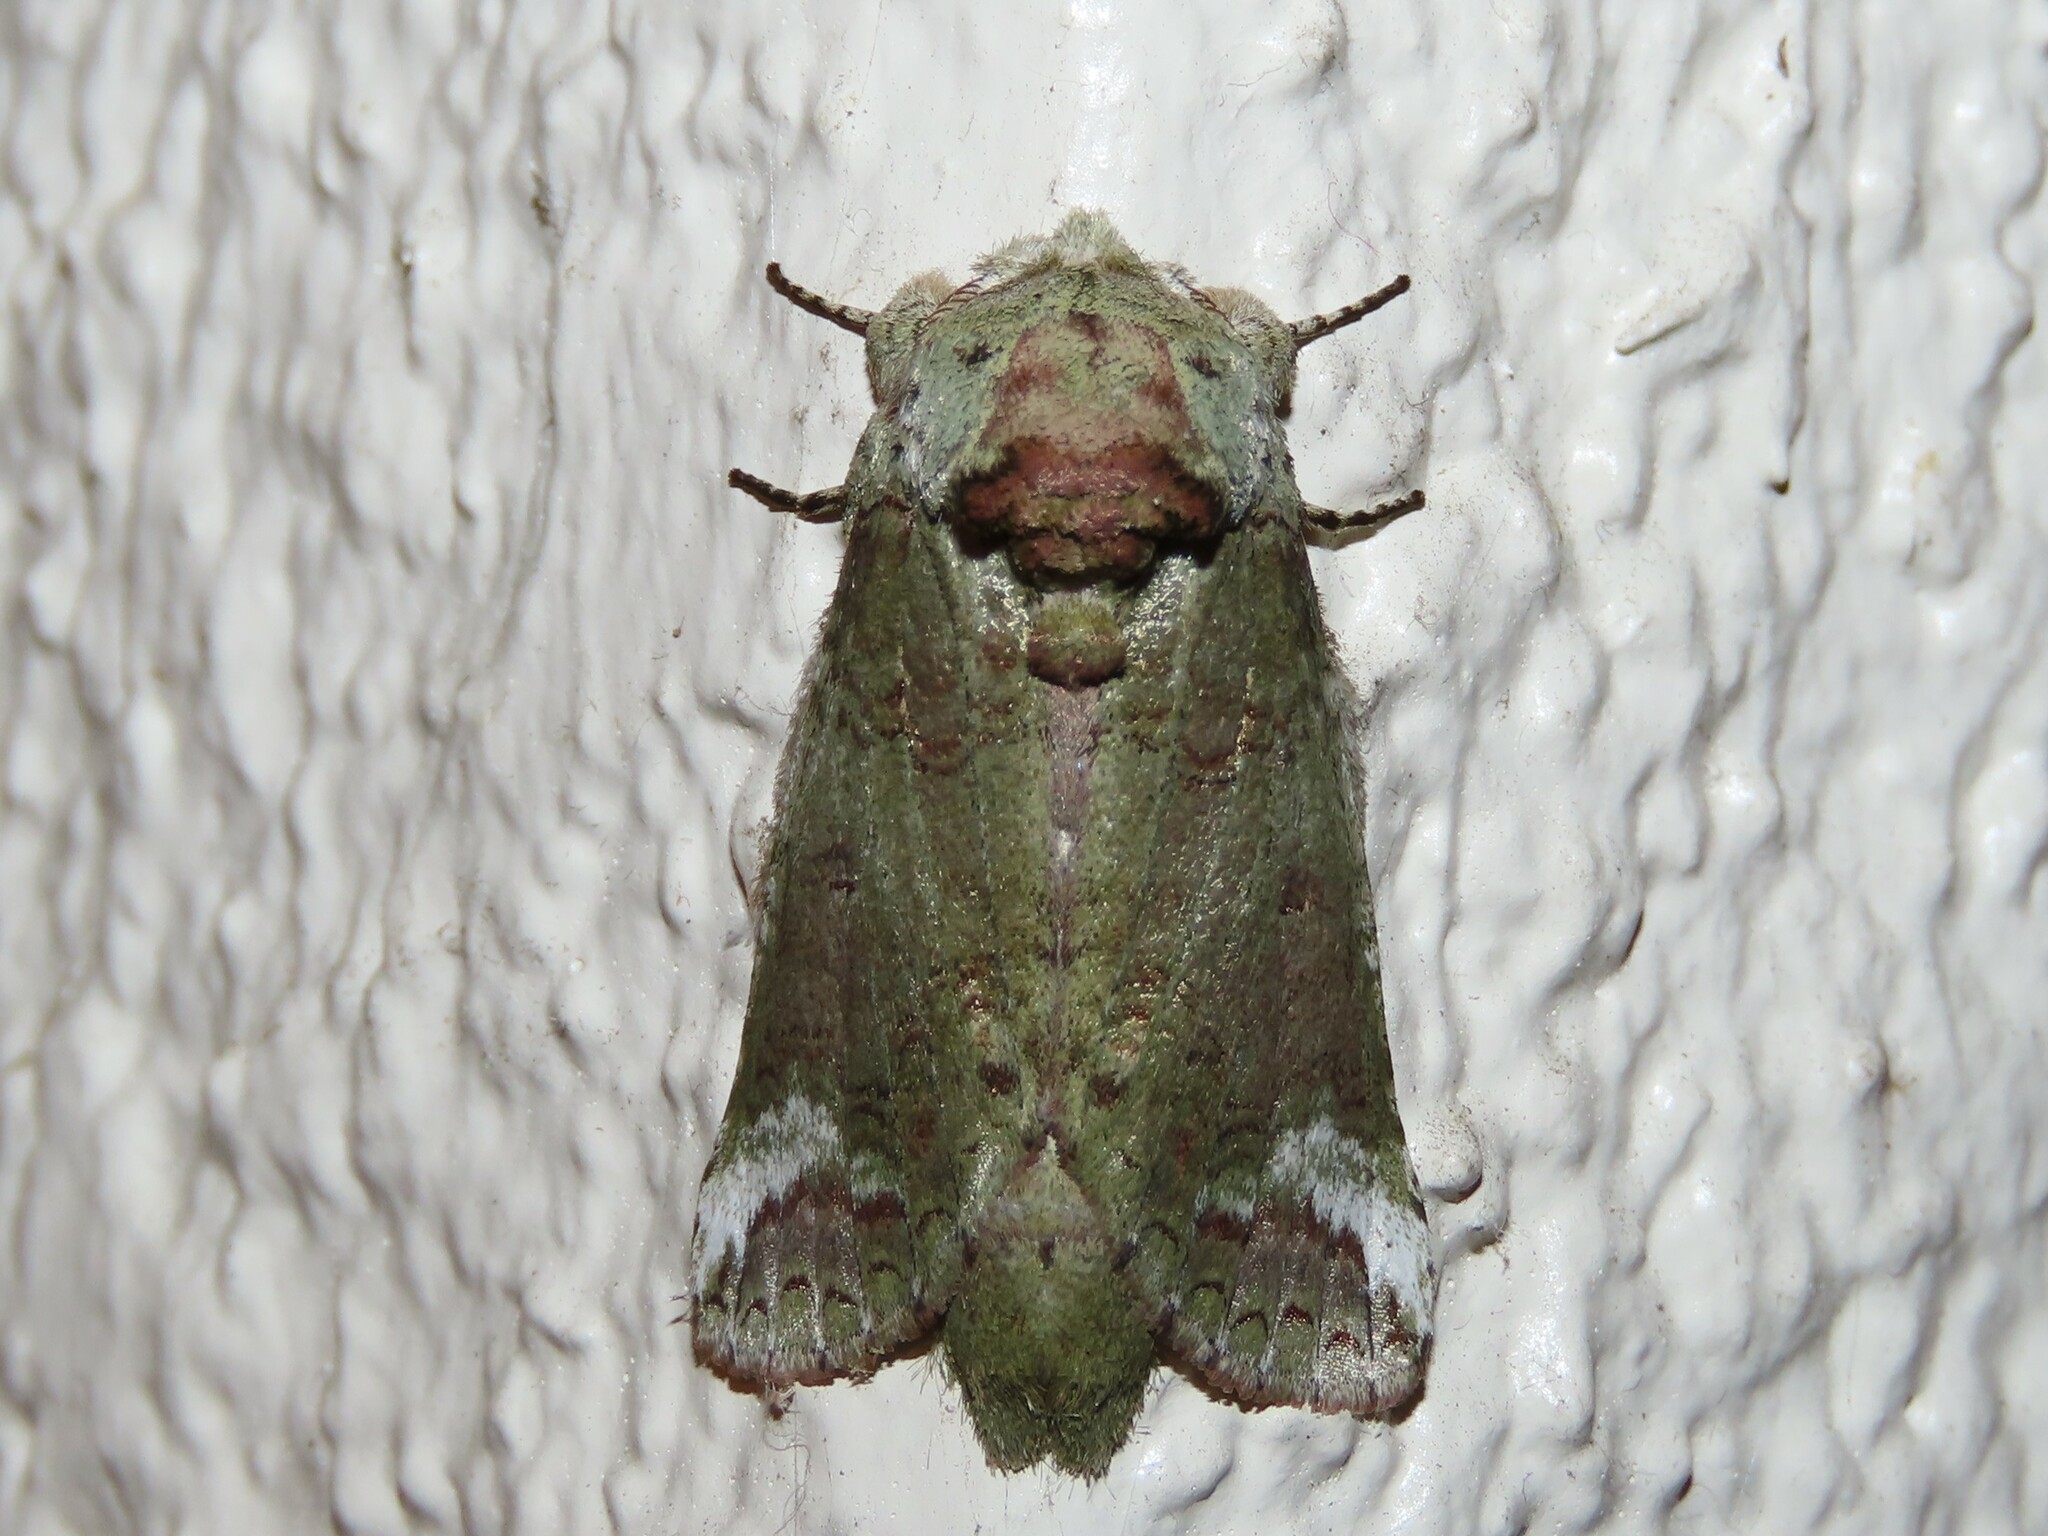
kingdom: Animalia
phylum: Arthropoda
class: Insecta
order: Lepidoptera
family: Notodontidae
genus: Heterocampa
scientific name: Heterocampa astarte
